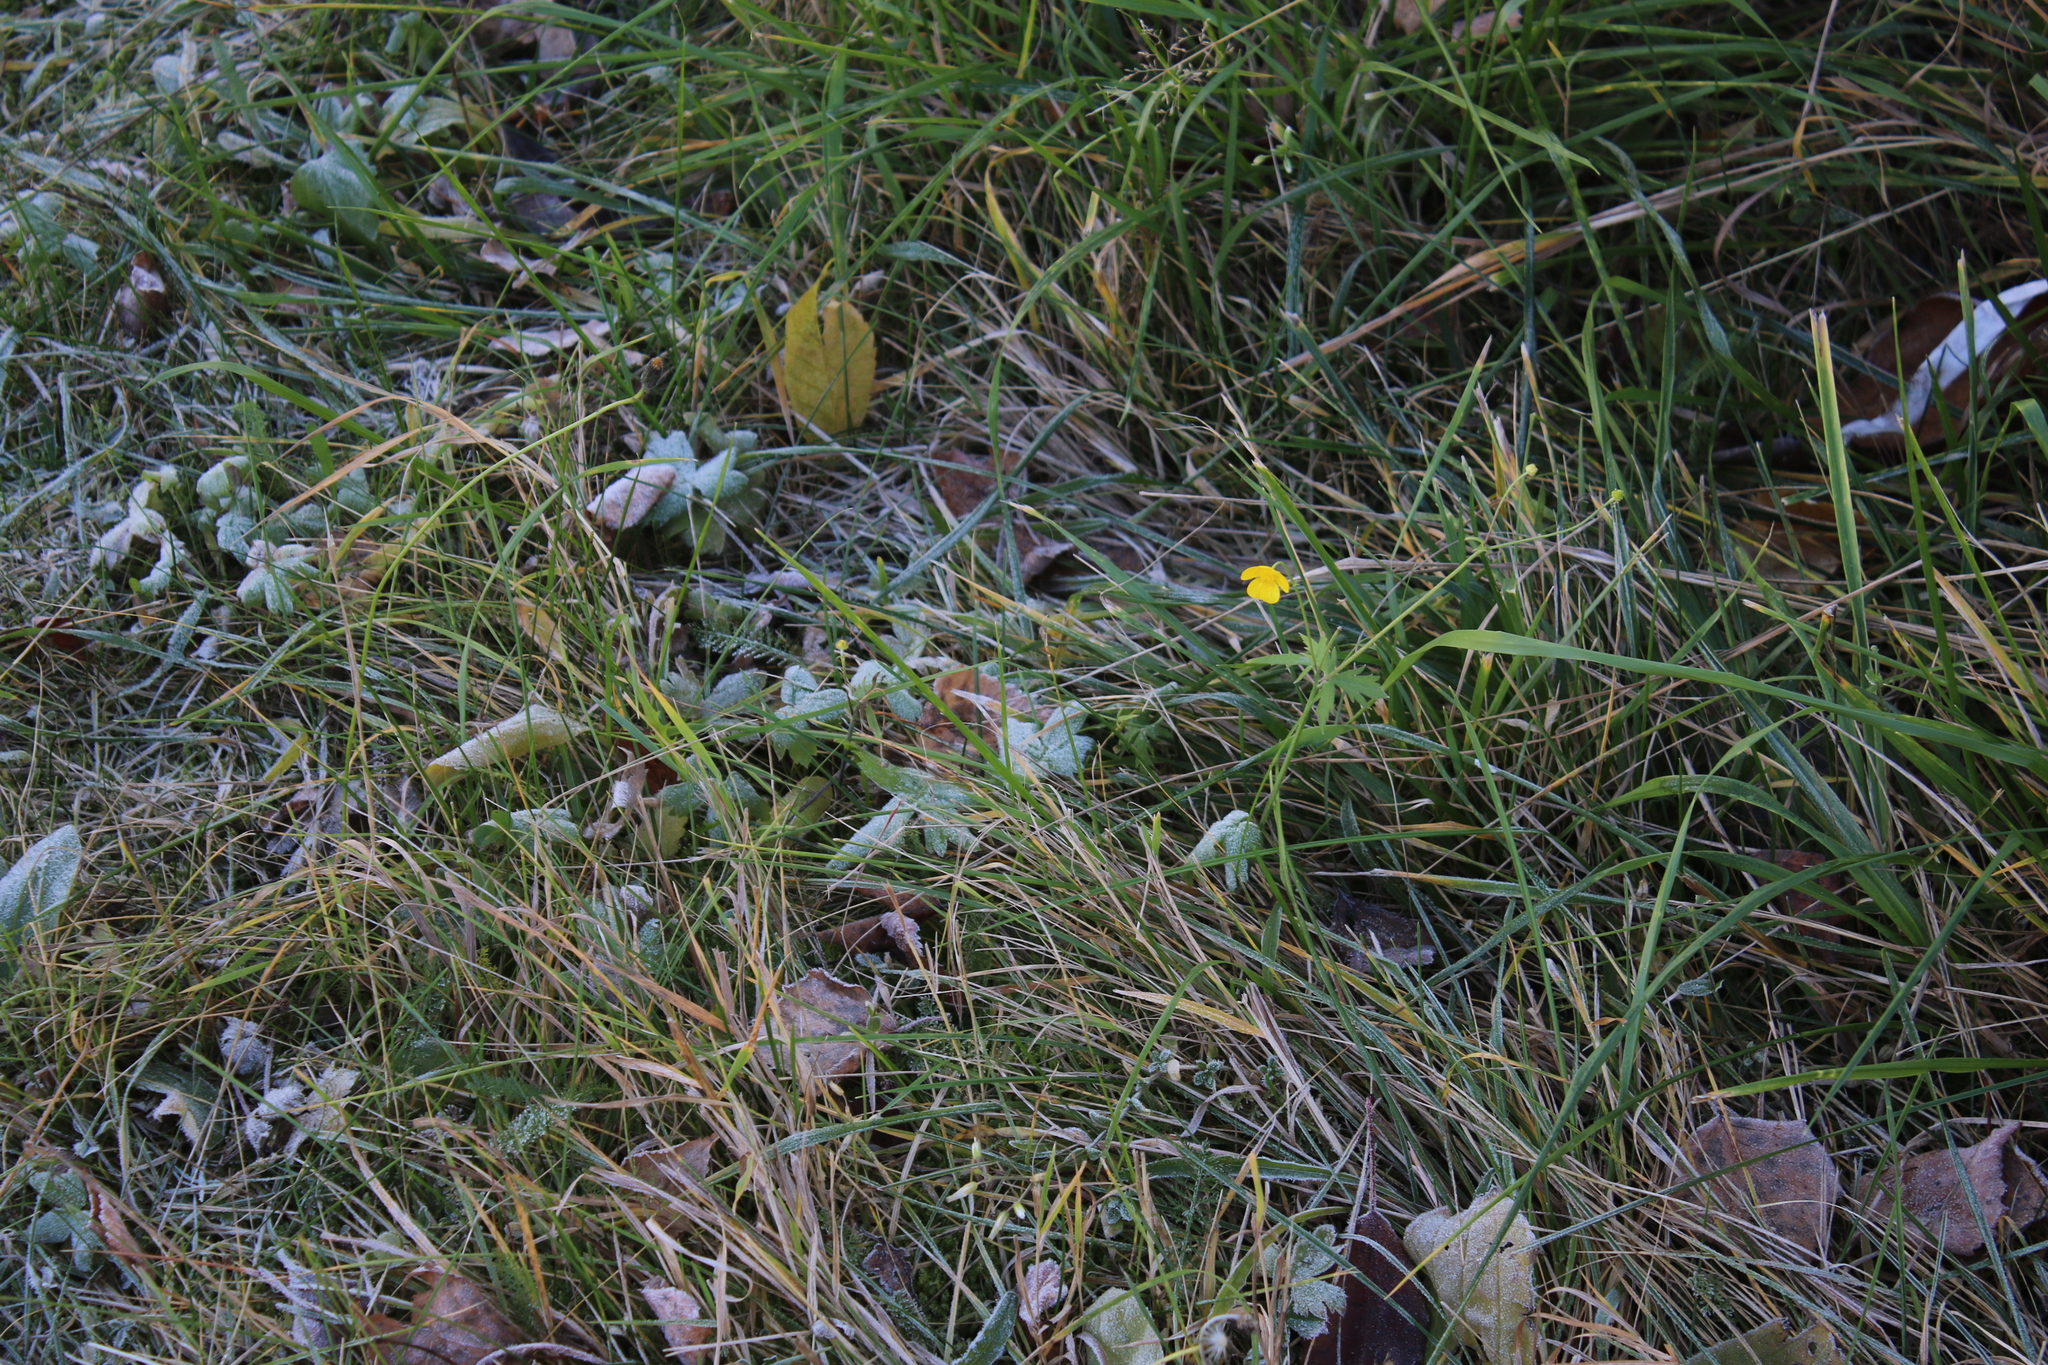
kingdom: Plantae
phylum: Tracheophyta
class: Magnoliopsida
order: Ranunculales
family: Ranunculaceae
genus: Ranunculus
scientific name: Ranunculus propinquus
